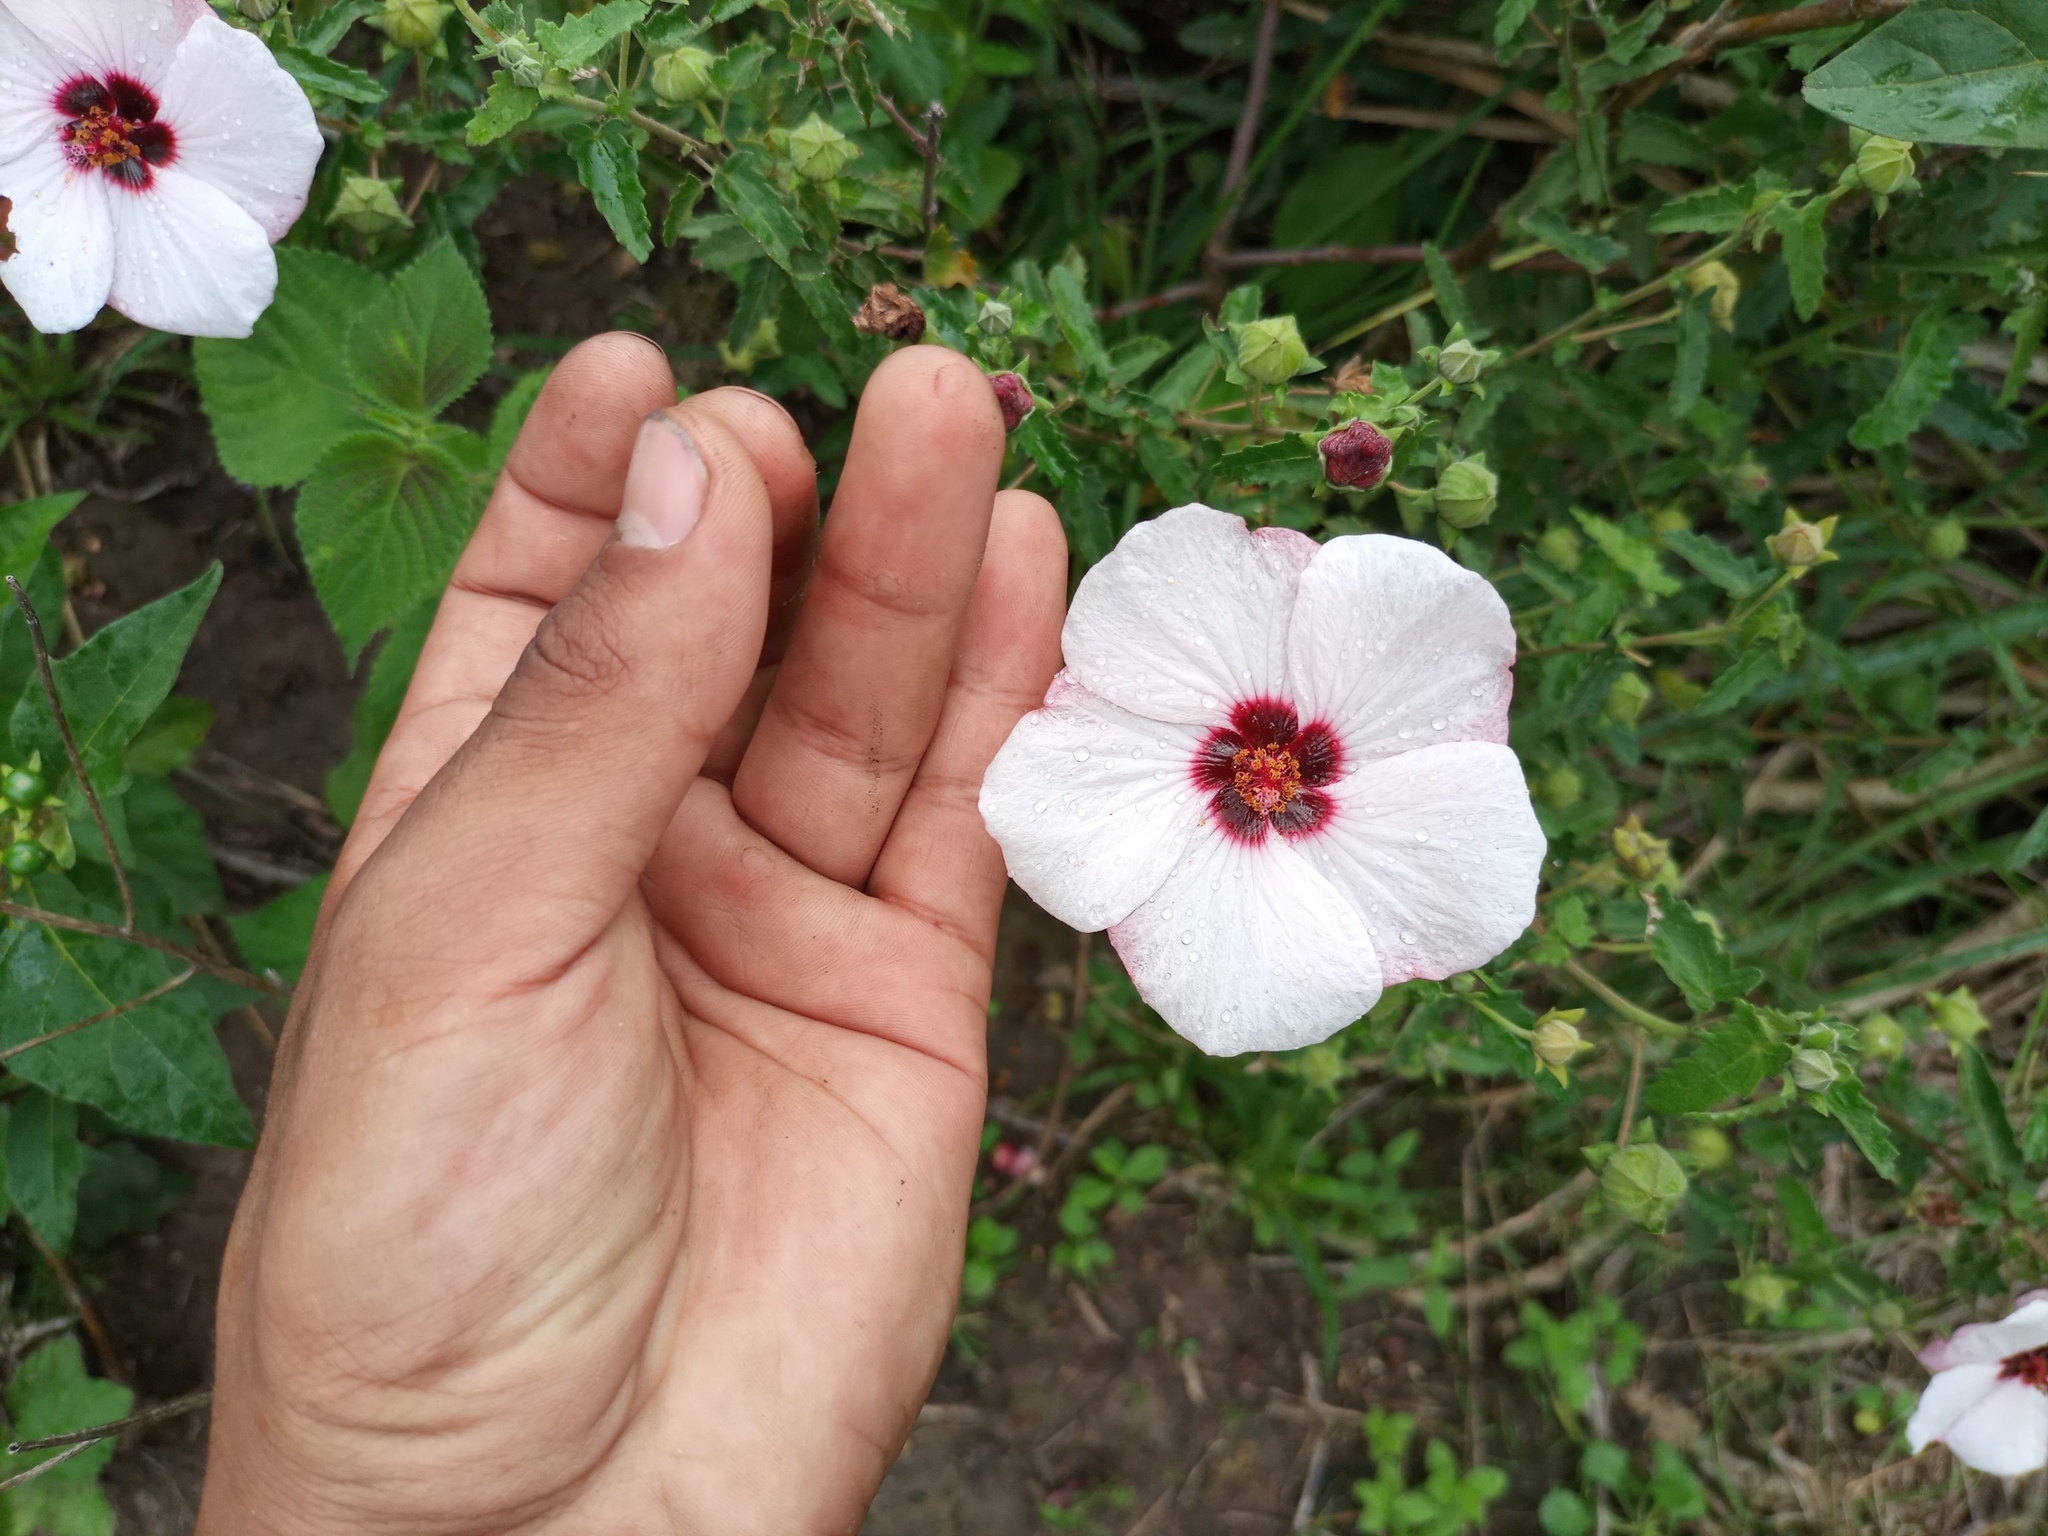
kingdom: Plantae
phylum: Tracheophyta
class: Magnoliopsida
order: Malvales
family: Malvaceae
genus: Pavonia
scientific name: Pavonia hastata
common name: Spearleaf swampmallow
